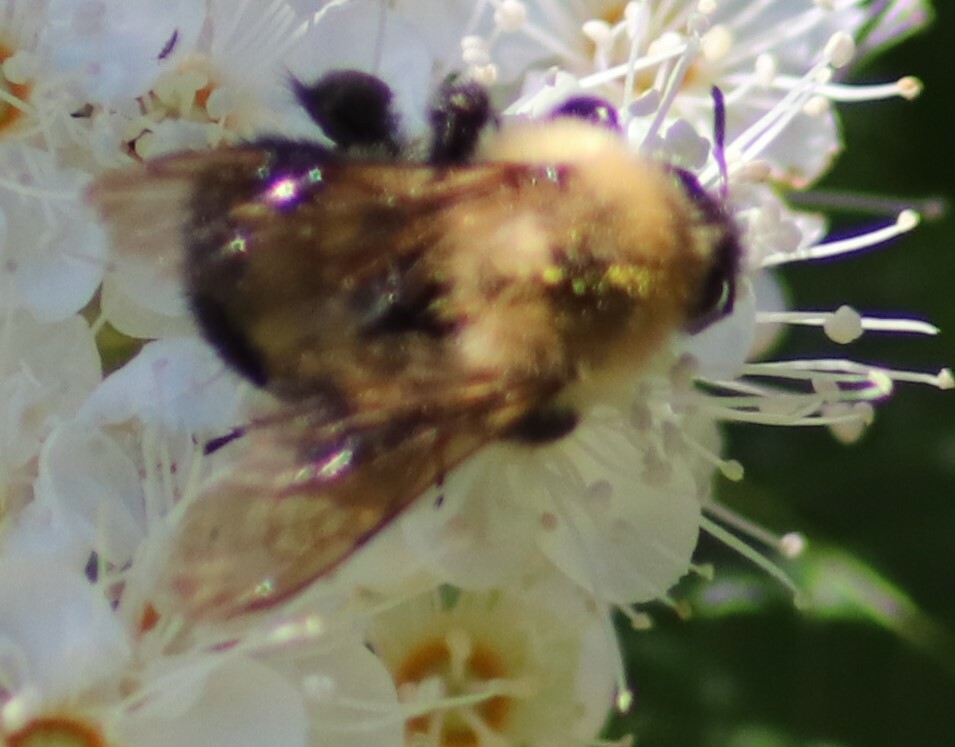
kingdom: Animalia
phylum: Arthropoda
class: Insecta
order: Hymenoptera
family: Apidae
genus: Bombus
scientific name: Bombus bimaculatus
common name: Two-spotted bumble bee
